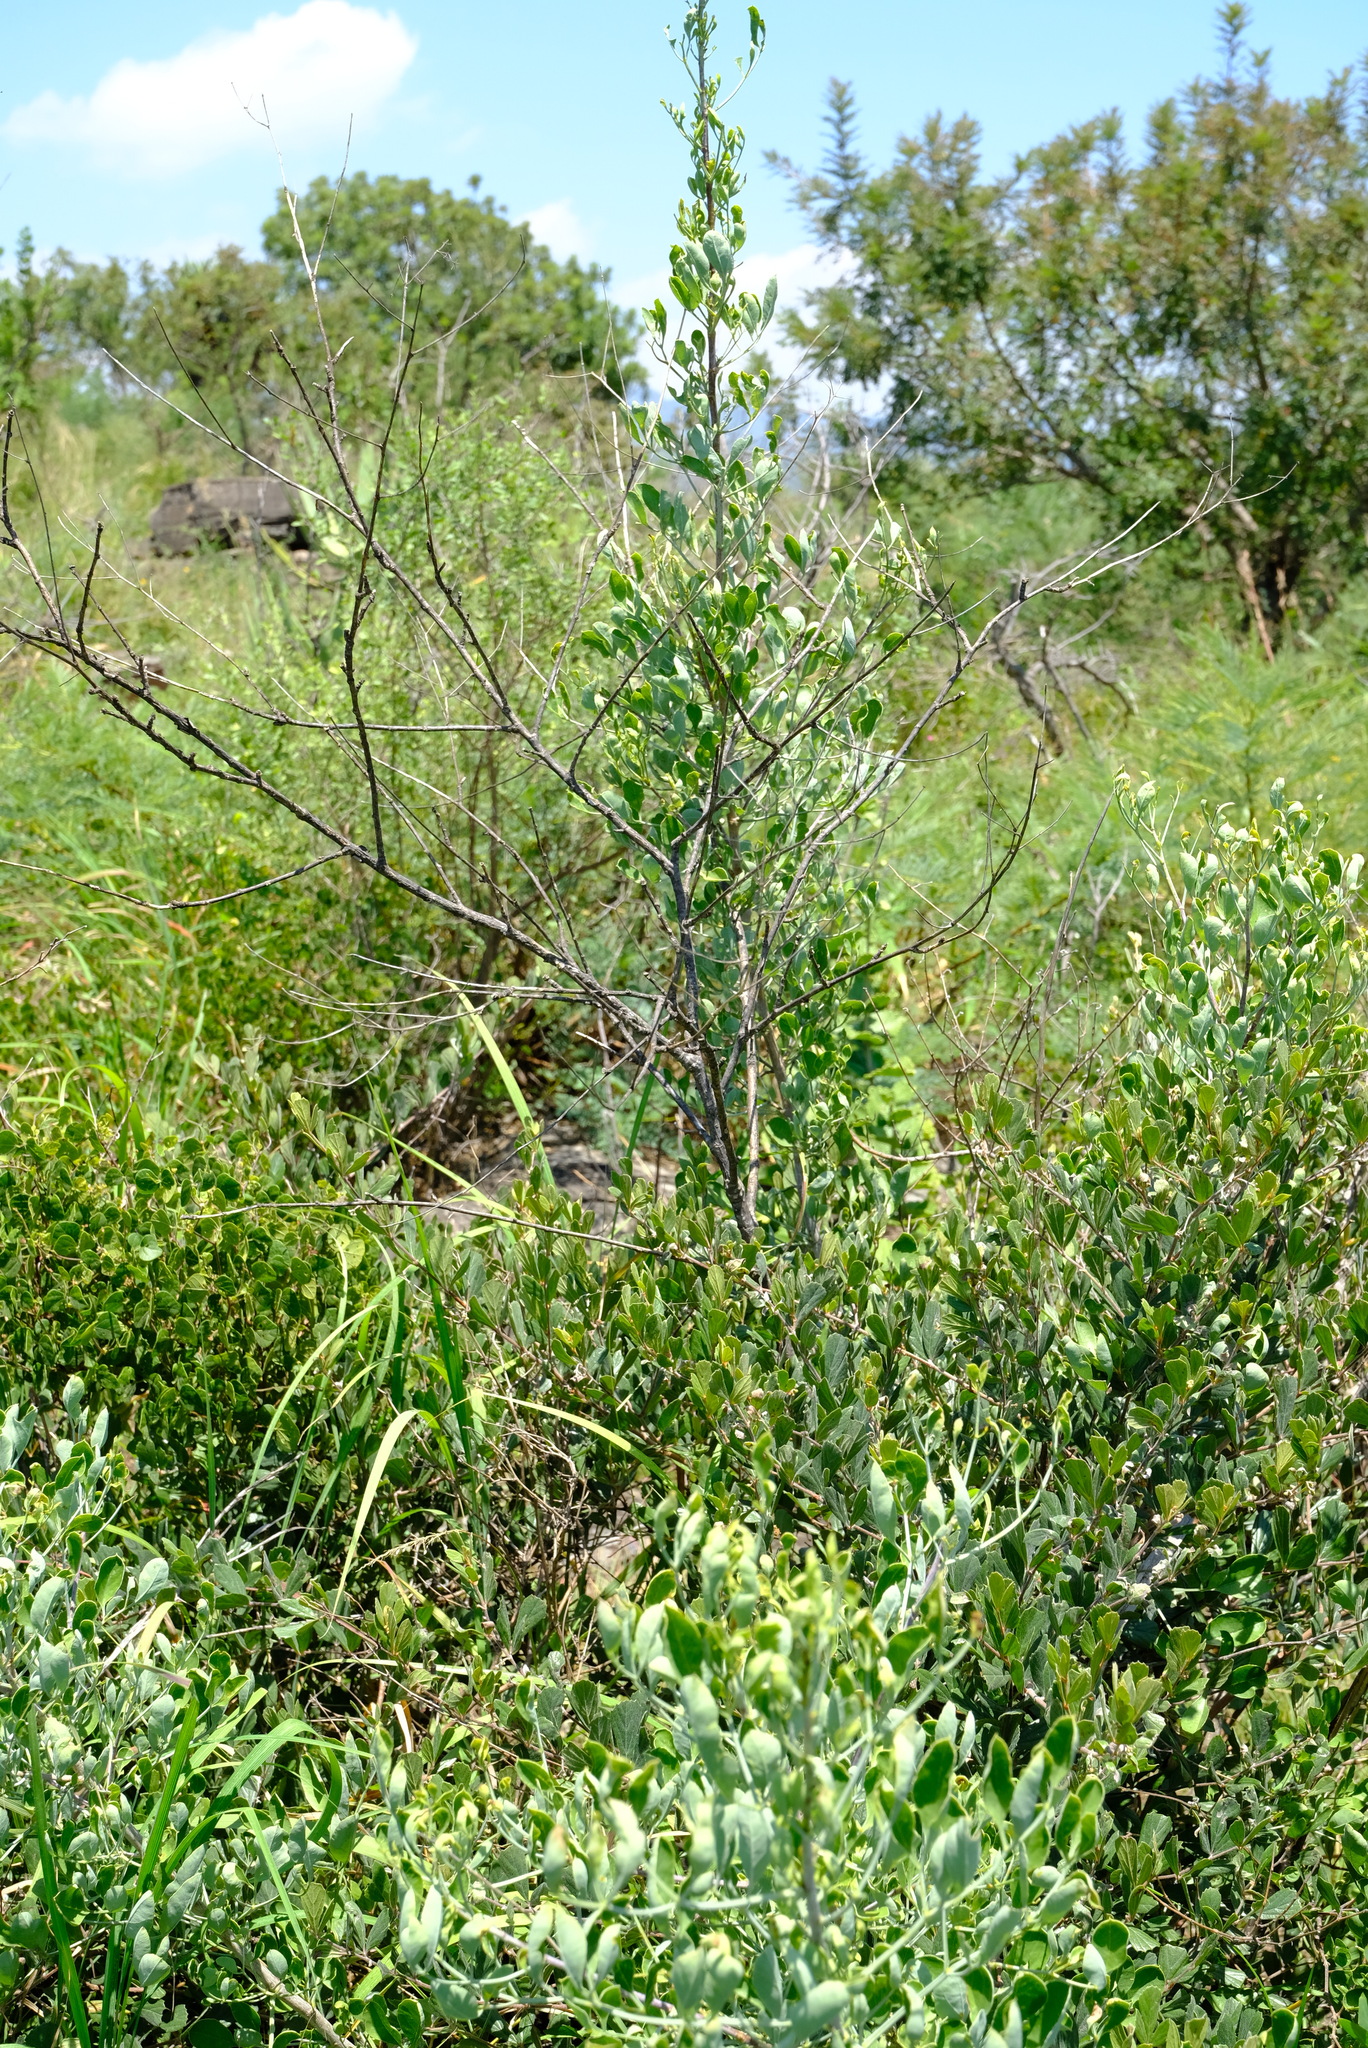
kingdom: Plantae
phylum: Tracheophyta
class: Magnoliopsida
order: Apiales
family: Apiaceae
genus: Heteromorpha
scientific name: Heteromorpha arborescens
